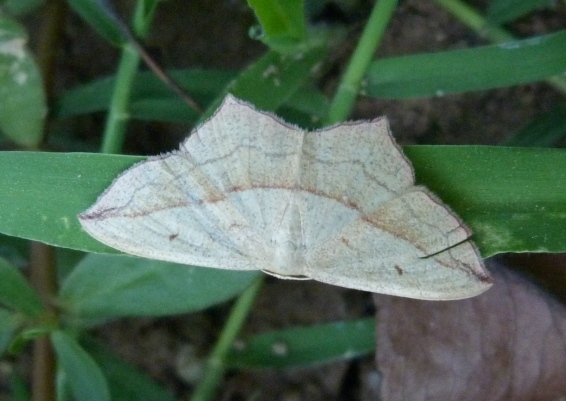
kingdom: Animalia
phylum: Arthropoda
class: Insecta
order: Lepidoptera
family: Geometridae
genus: Timandra
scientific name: Timandra comae
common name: Blood-vein
